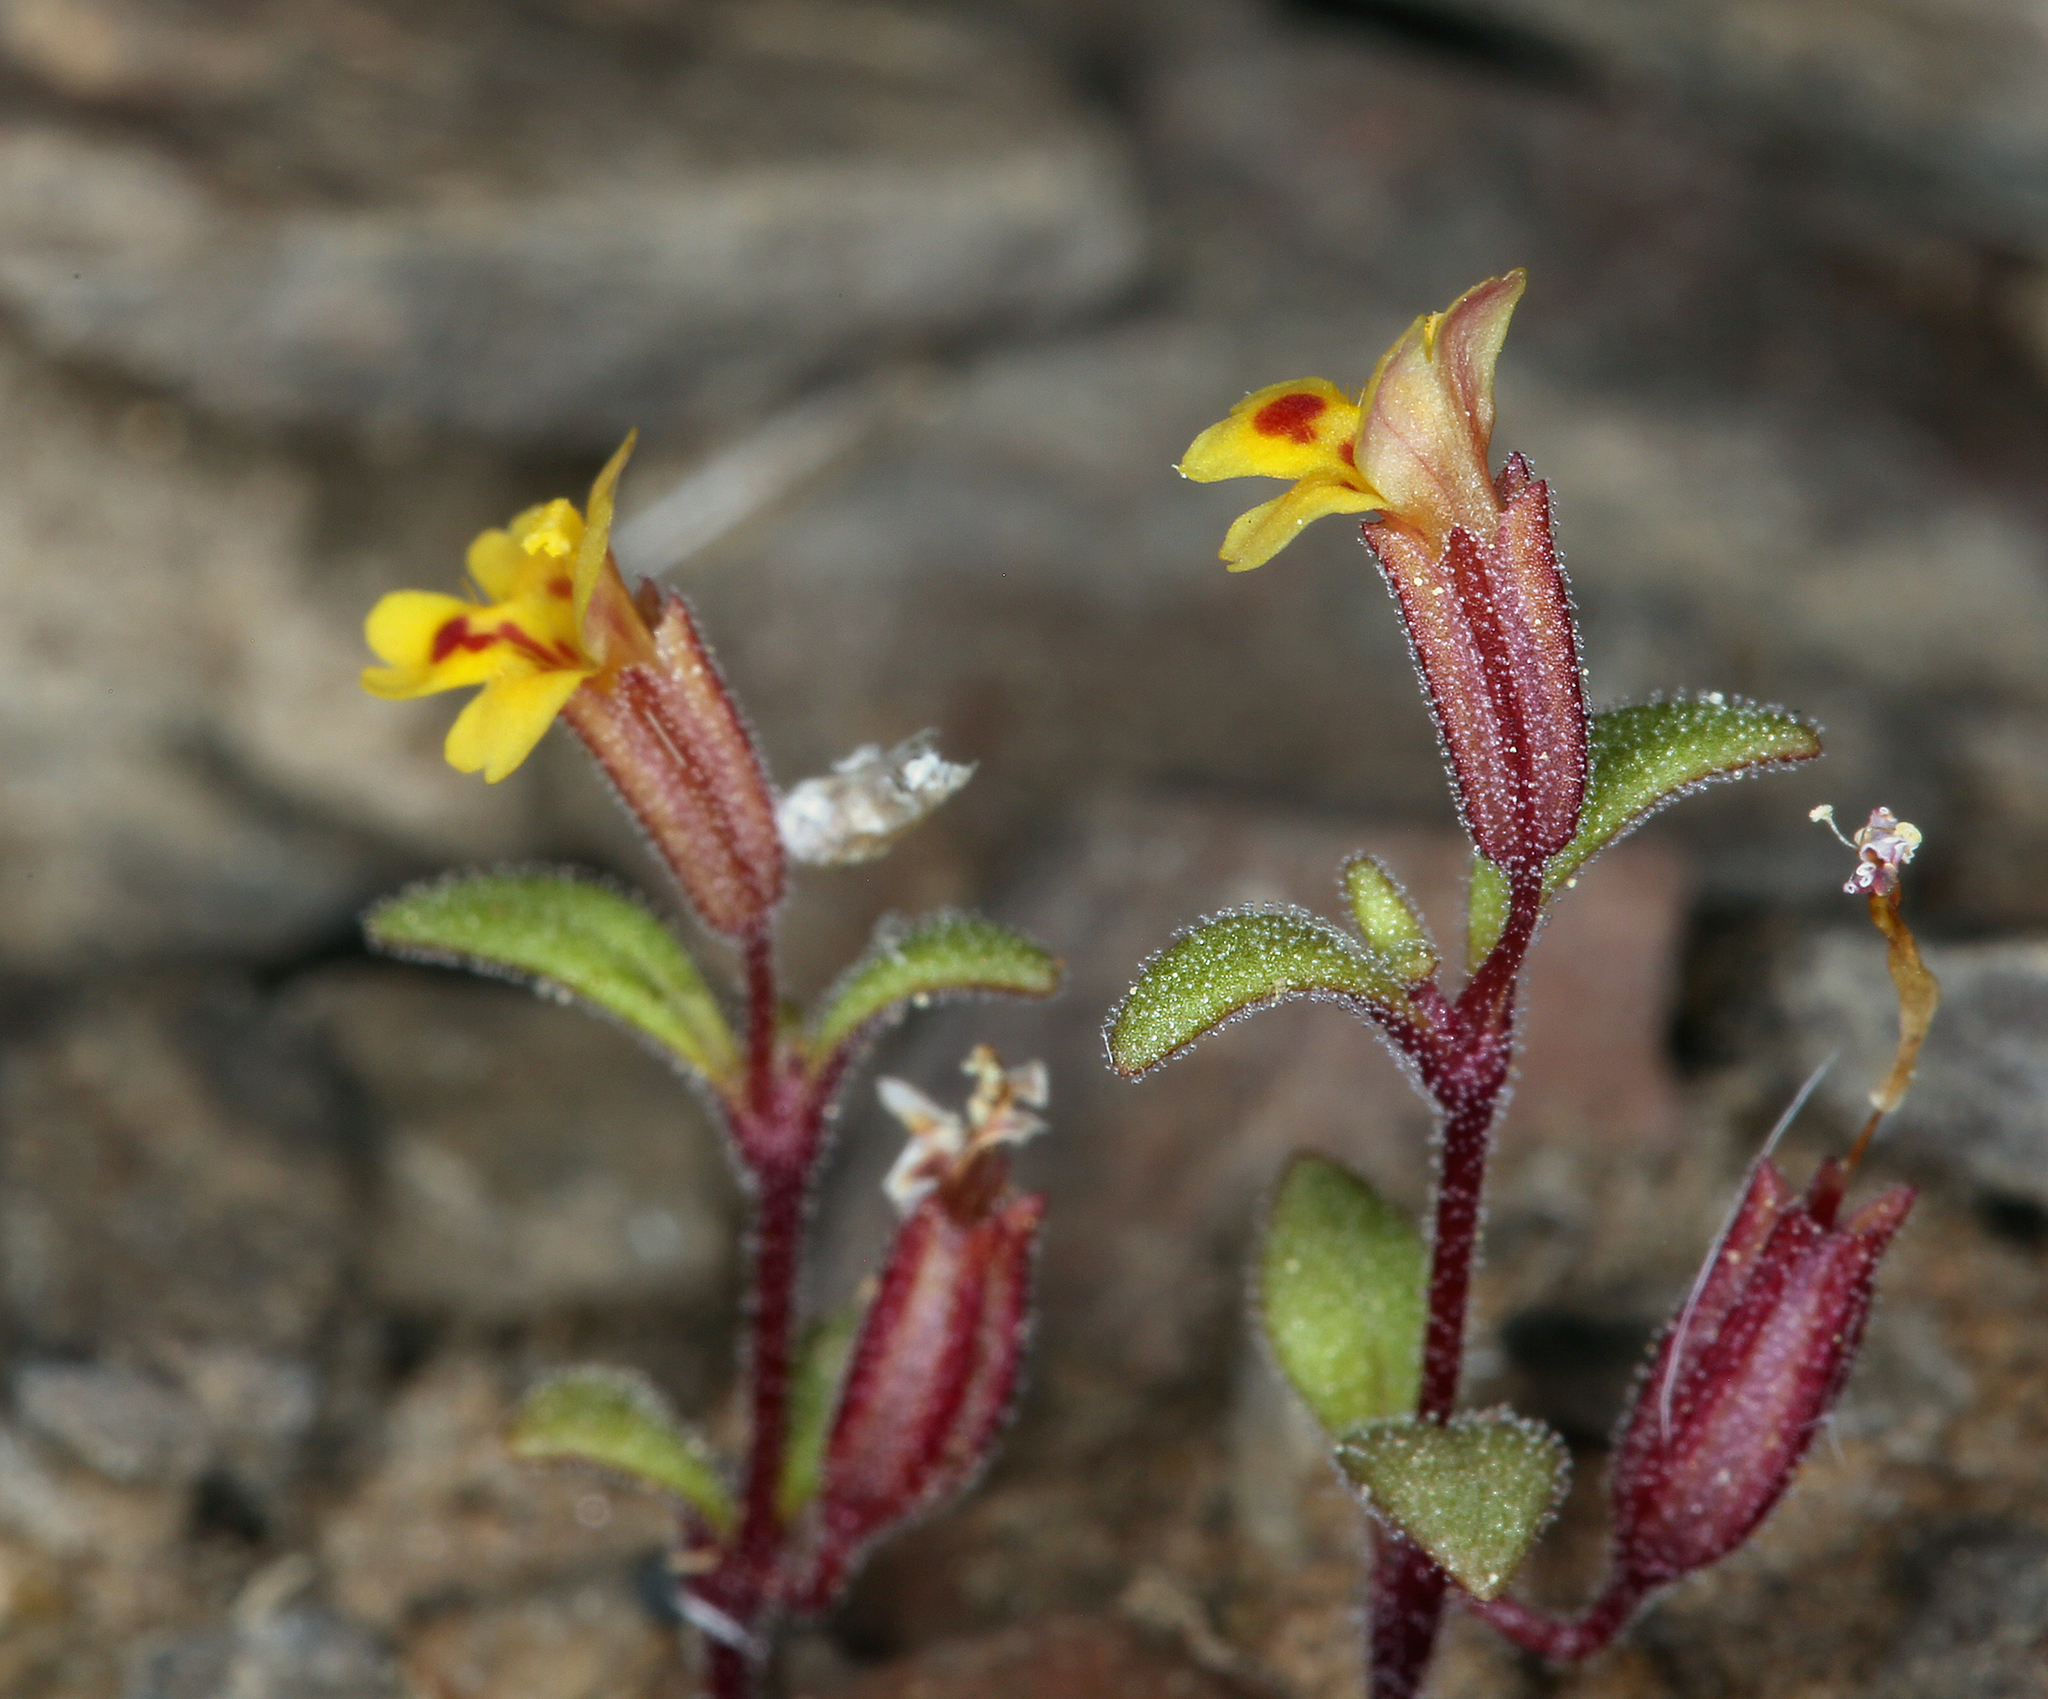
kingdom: Plantae
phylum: Tracheophyta
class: Magnoliopsida
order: Lamiales
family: Phrymaceae
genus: Erythranthe
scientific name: Erythranthe suksdorfii
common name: Suksdorf's monkeyflower
